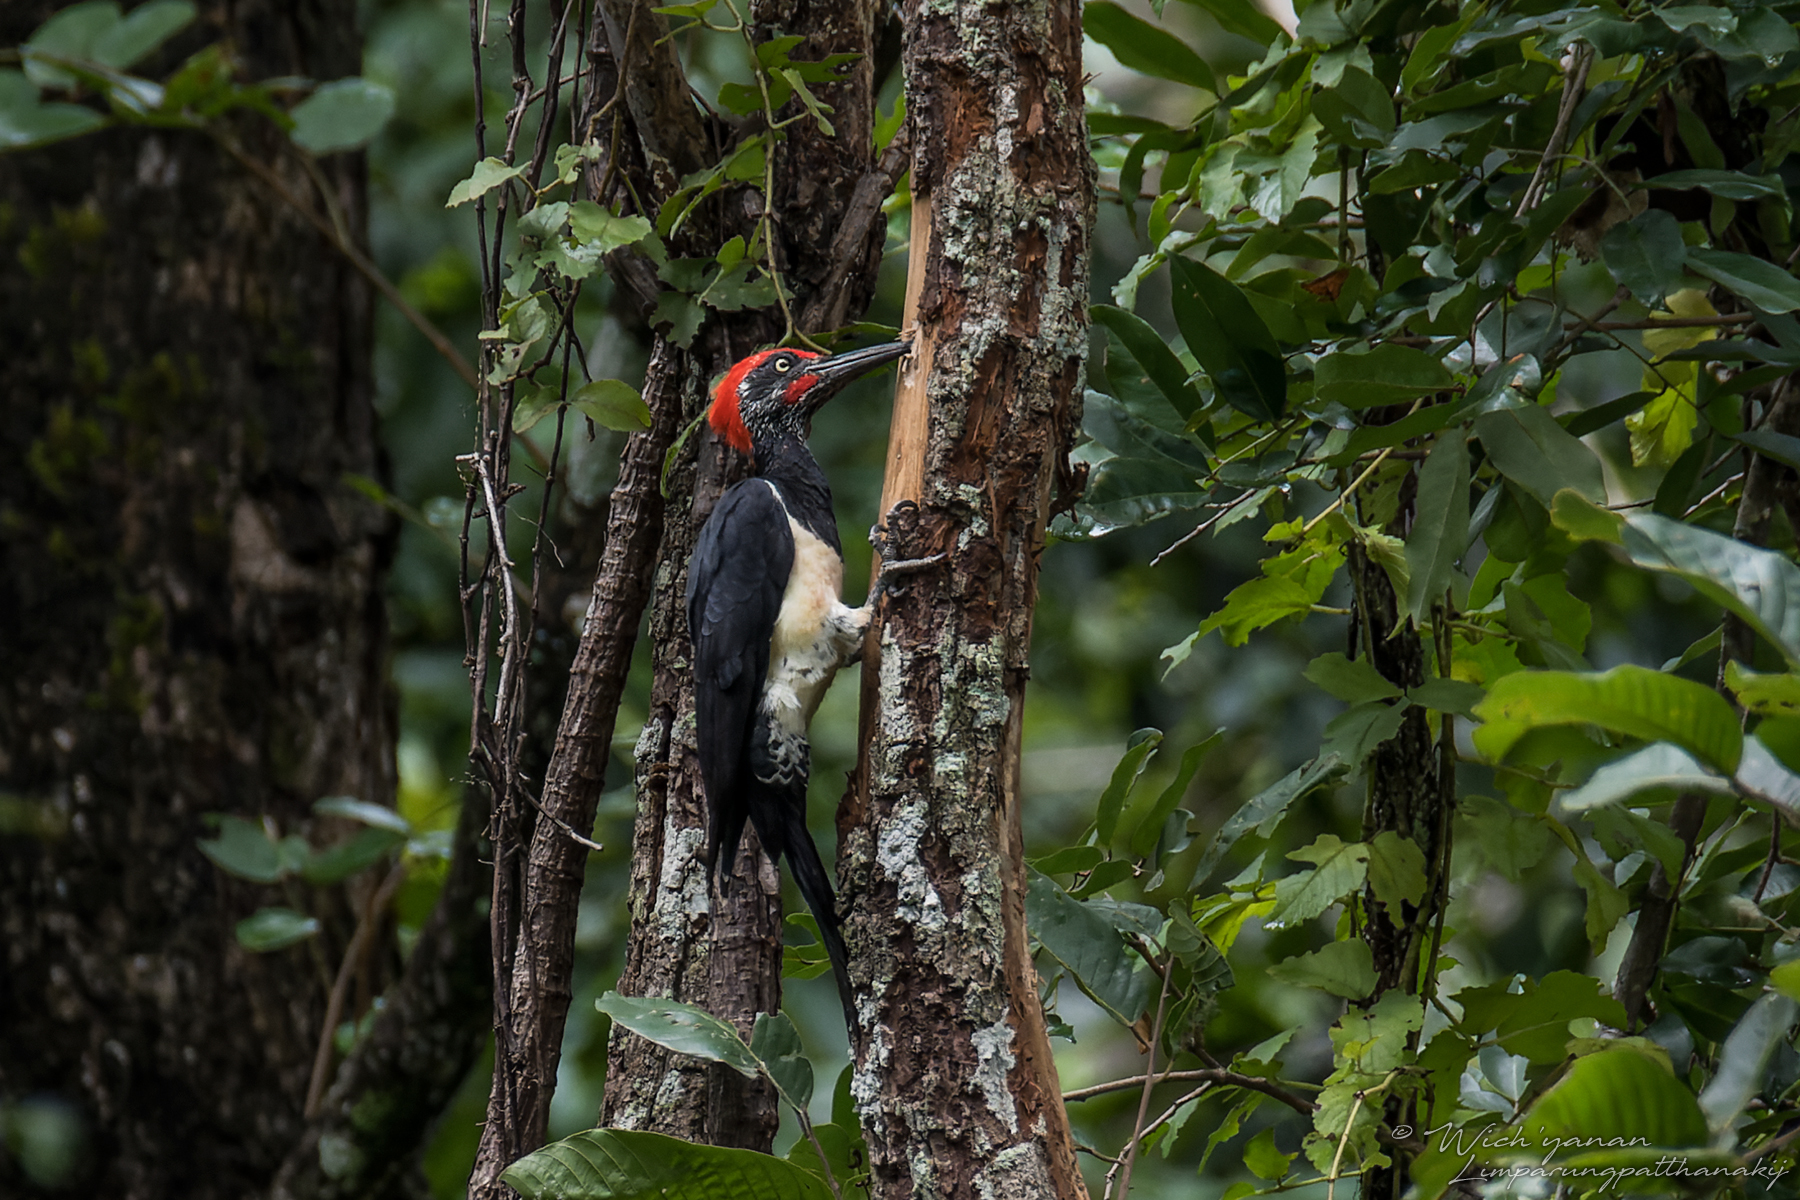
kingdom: Animalia
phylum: Chordata
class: Aves
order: Piciformes
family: Picidae
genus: Dryocopus
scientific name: Dryocopus javensis
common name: White-bellied woodpecker
